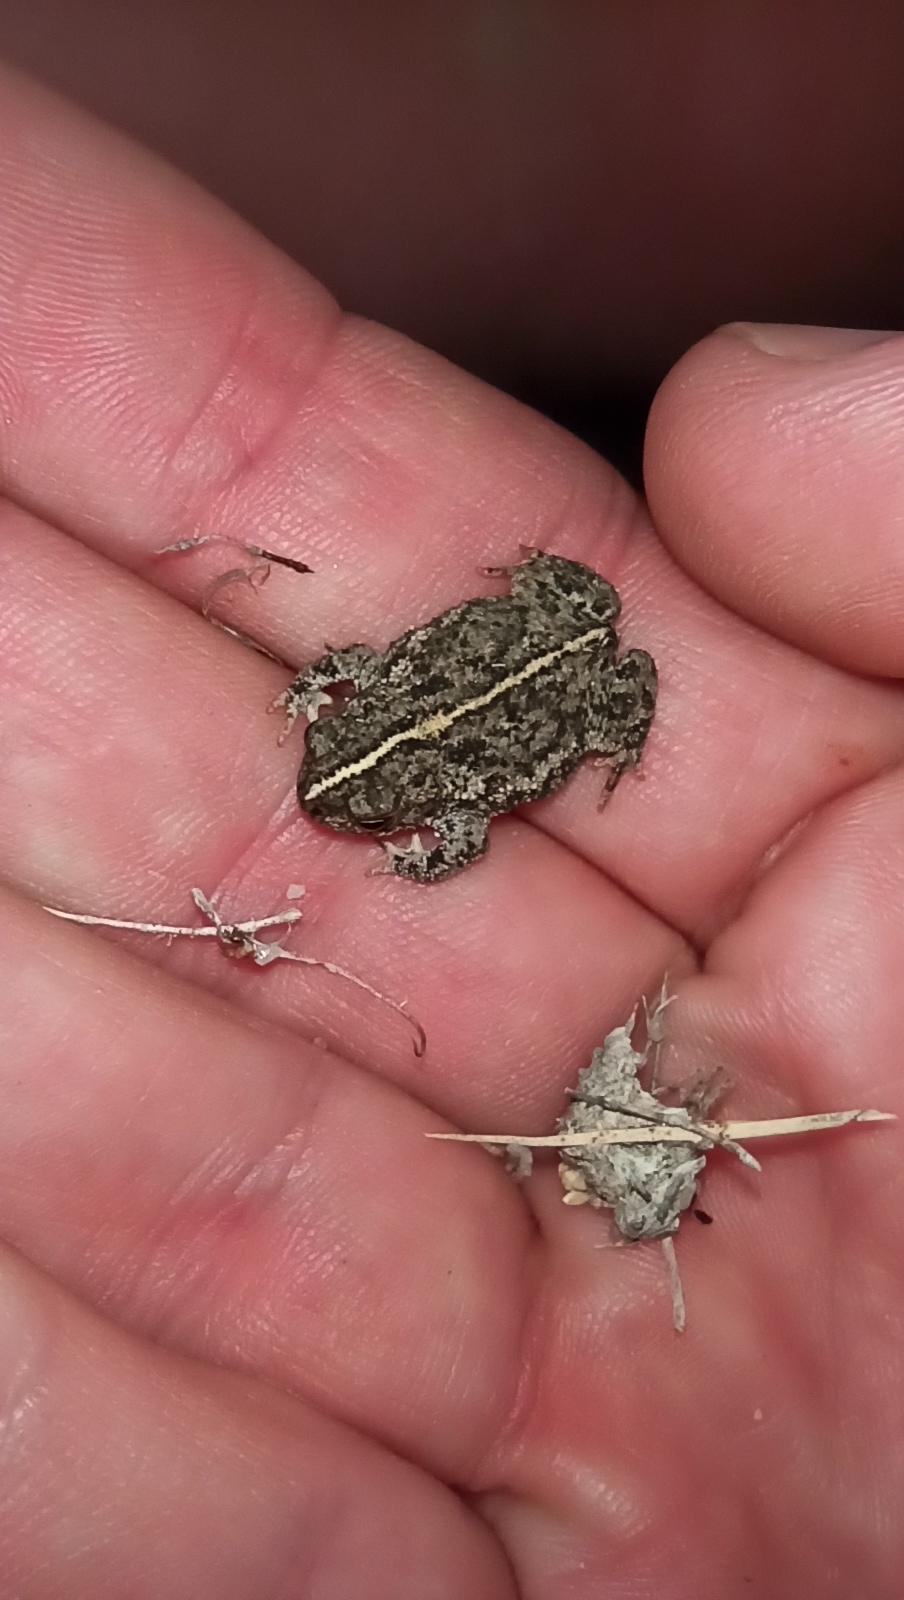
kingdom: Animalia
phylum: Chordata
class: Amphibia
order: Anura
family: Bufonidae
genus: Rhinella
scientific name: Rhinella dorbignyi
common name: D´orbigny’s toad
